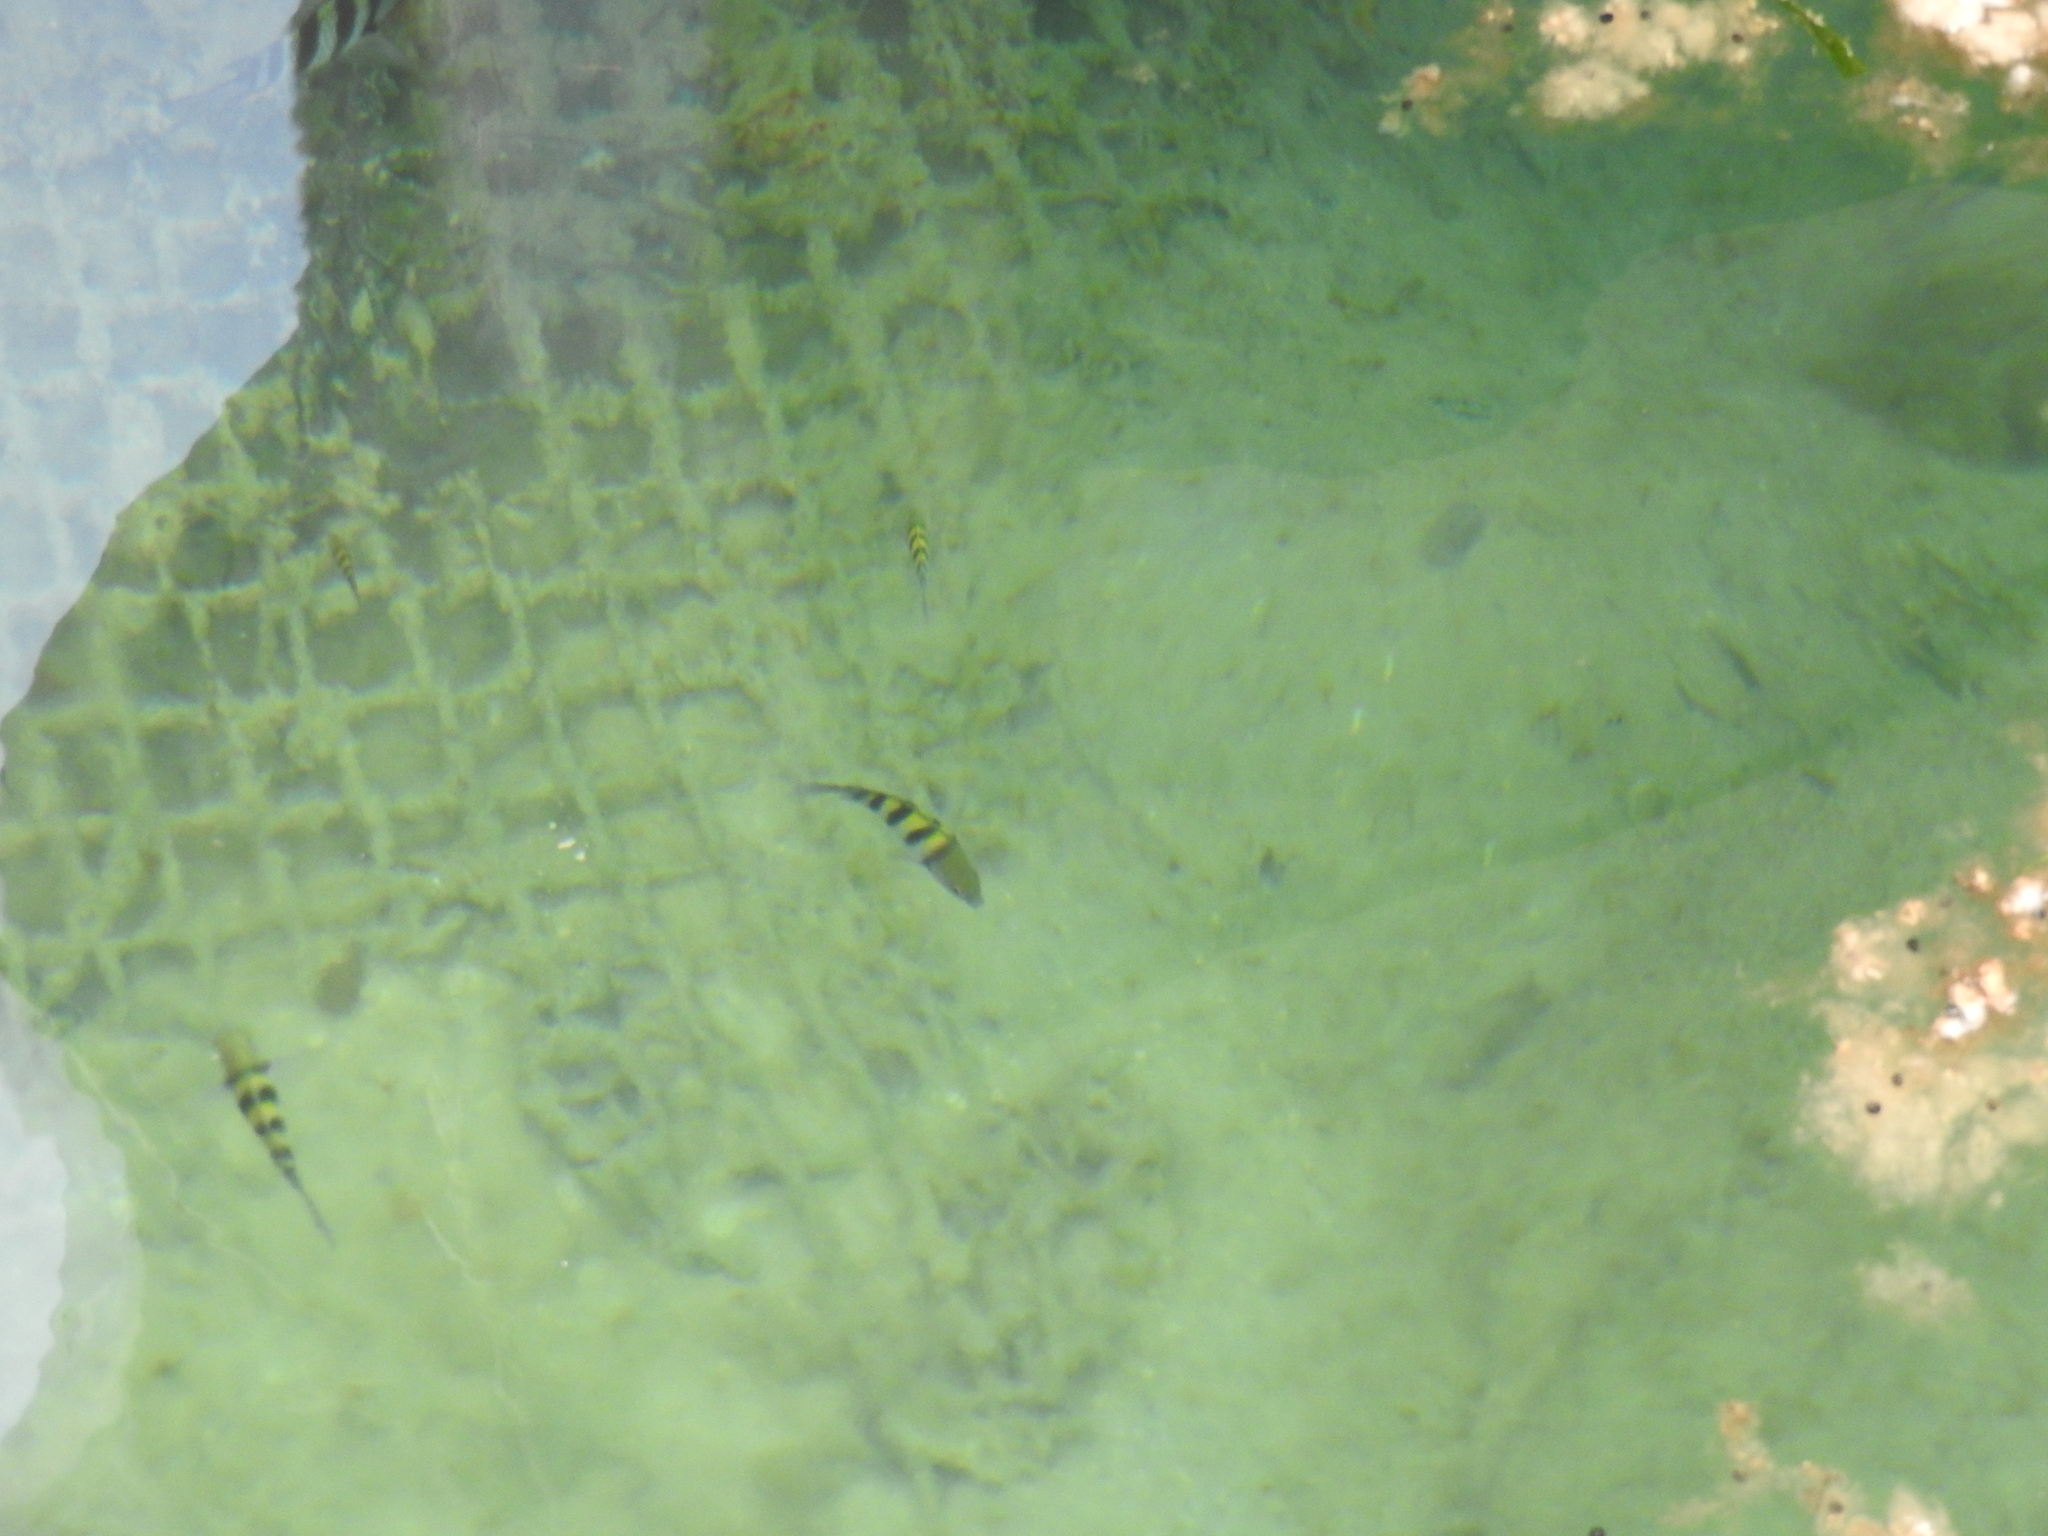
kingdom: Animalia
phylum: Chordata
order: Perciformes
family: Pomacentridae
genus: Abudefduf
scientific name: Abudefduf saxatilis
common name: Sergeant major
